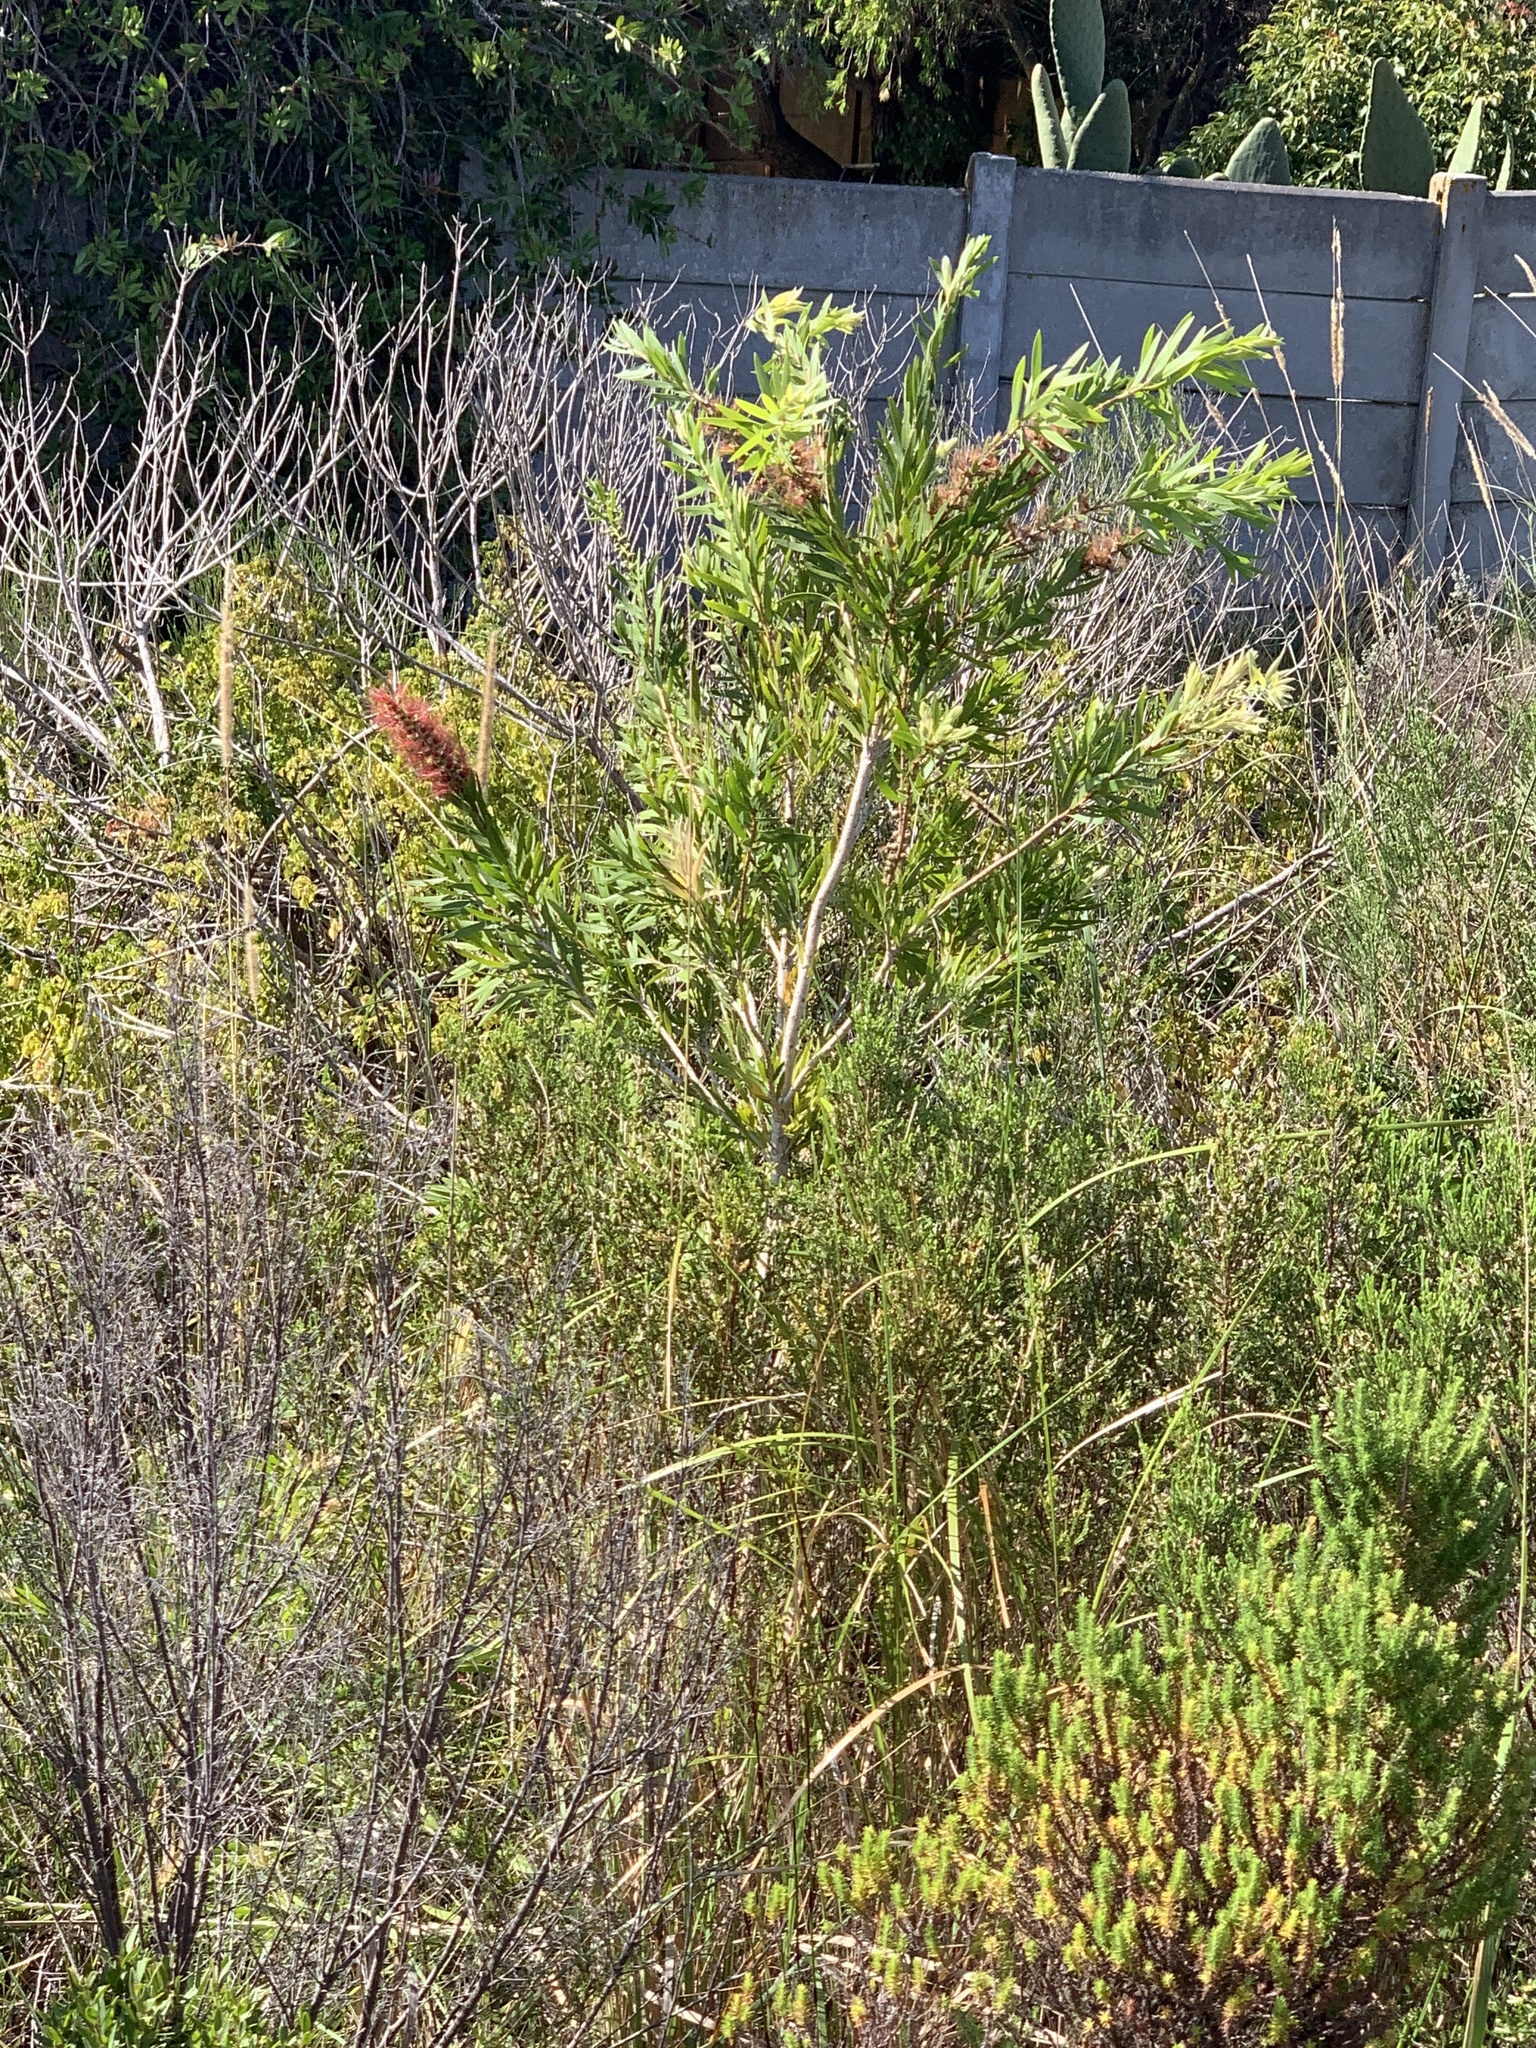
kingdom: Plantae
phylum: Tracheophyta
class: Magnoliopsida
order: Myrtales
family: Myrtaceae
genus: Callistemon
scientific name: Callistemon viminalis
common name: Drooping bottlebrush
